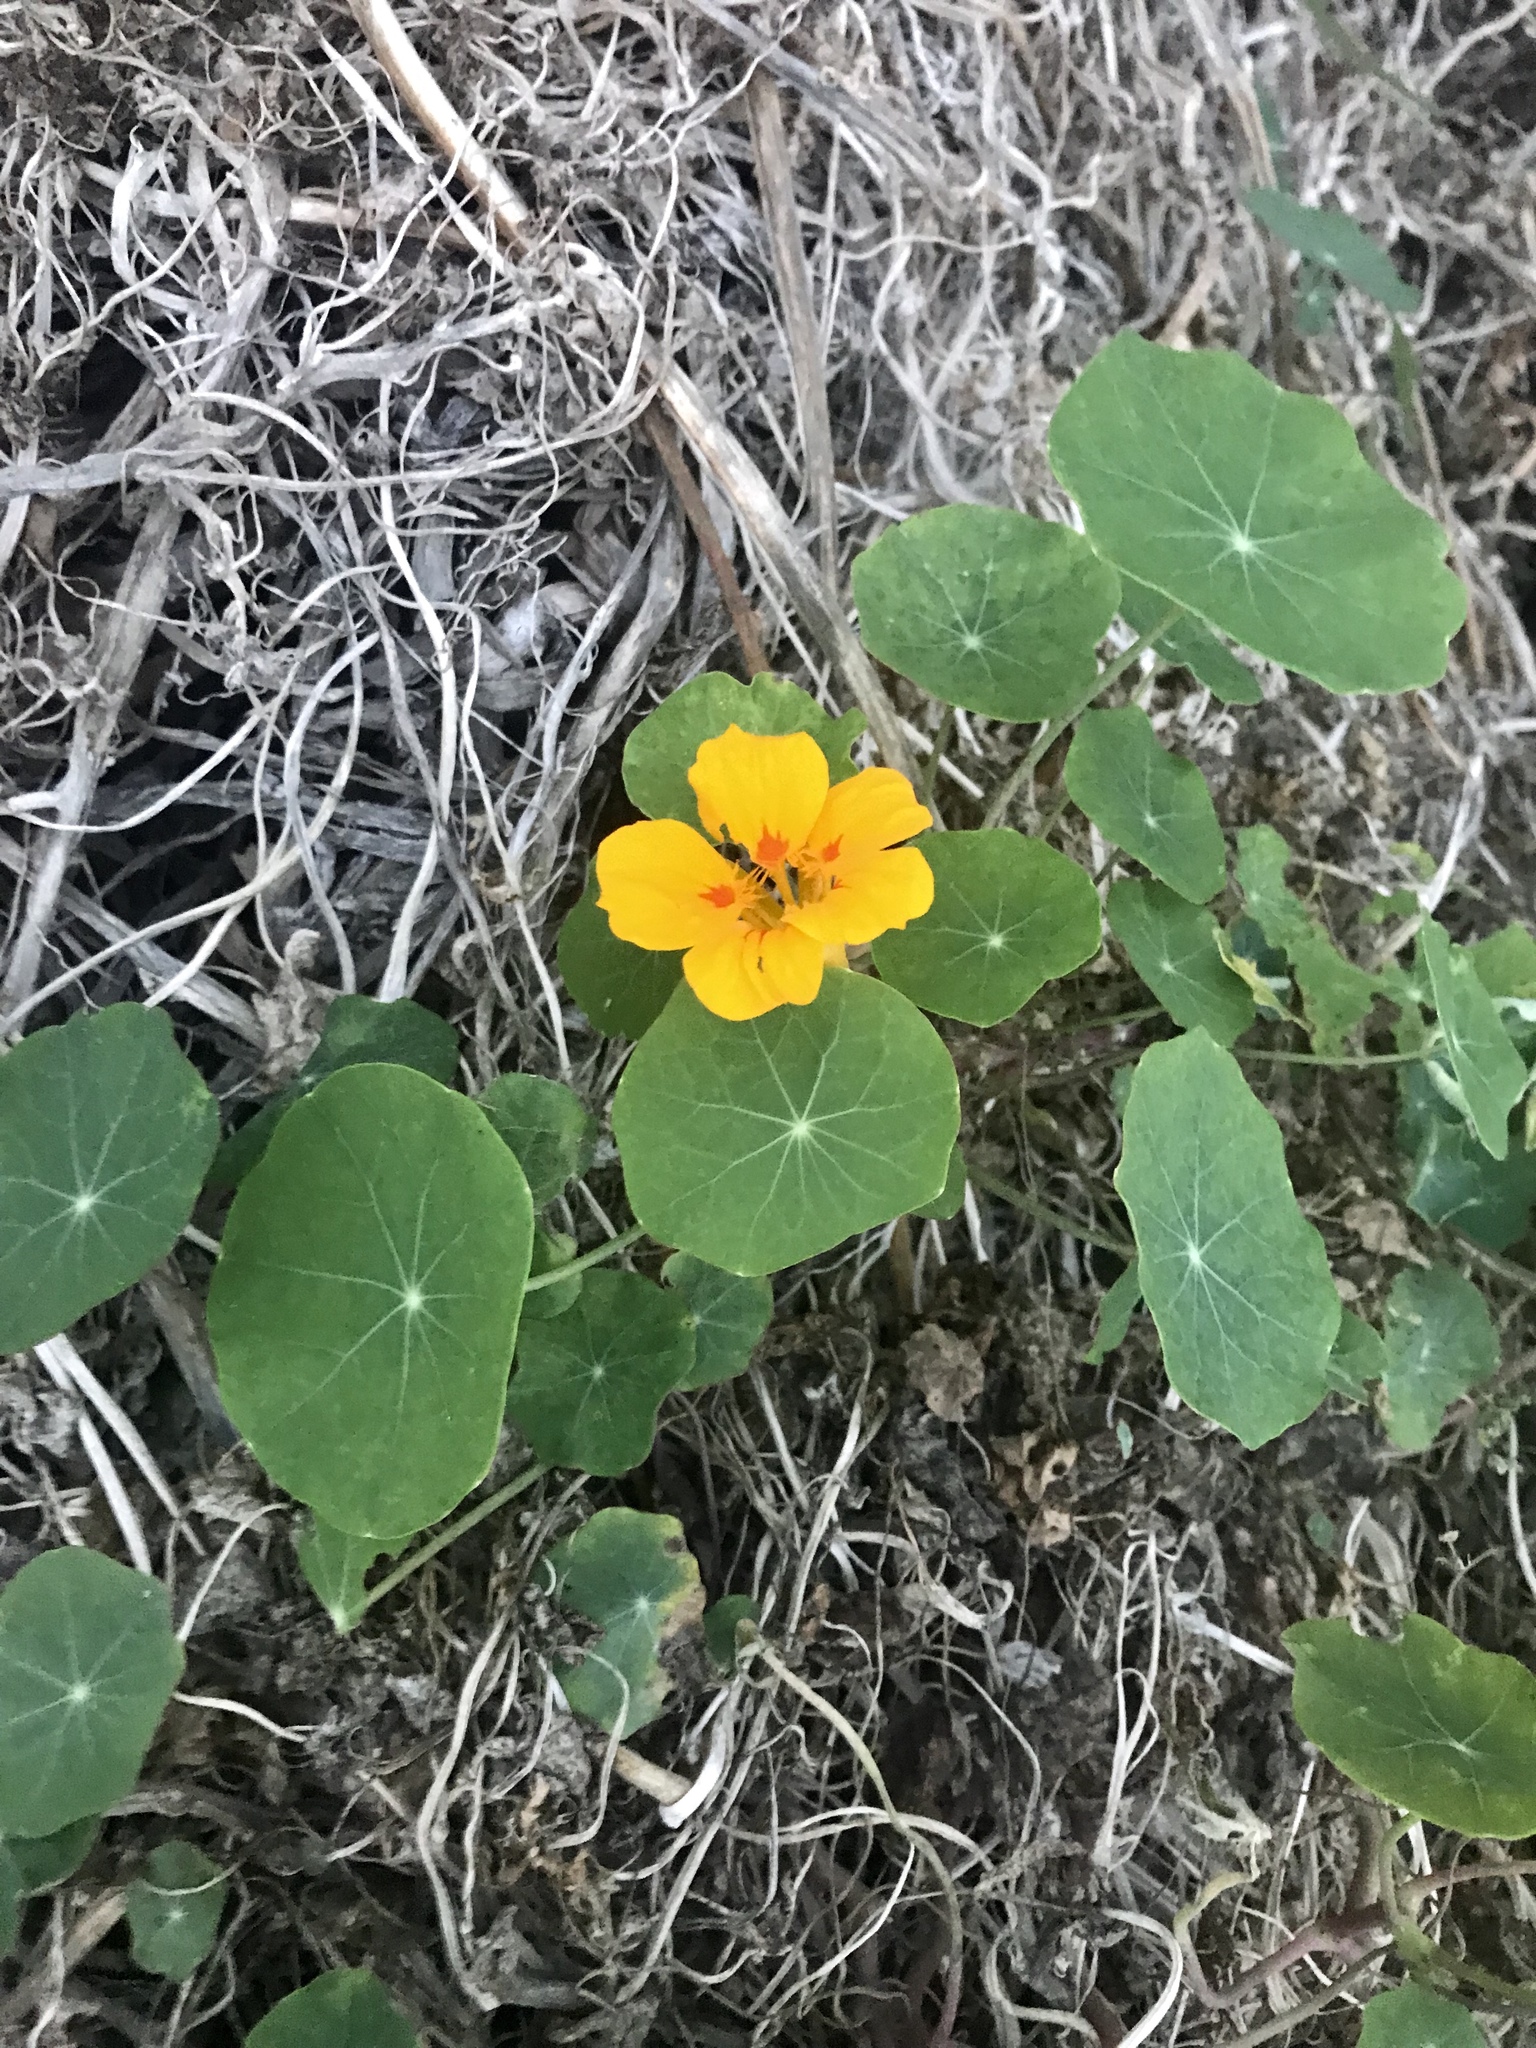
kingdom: Plantae
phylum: Tracheophyta
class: Magnoliopsida
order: Brassicales
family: Tropaeolaceae
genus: Tropaeolum
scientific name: Tropaeolum majus
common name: Nasturtium
